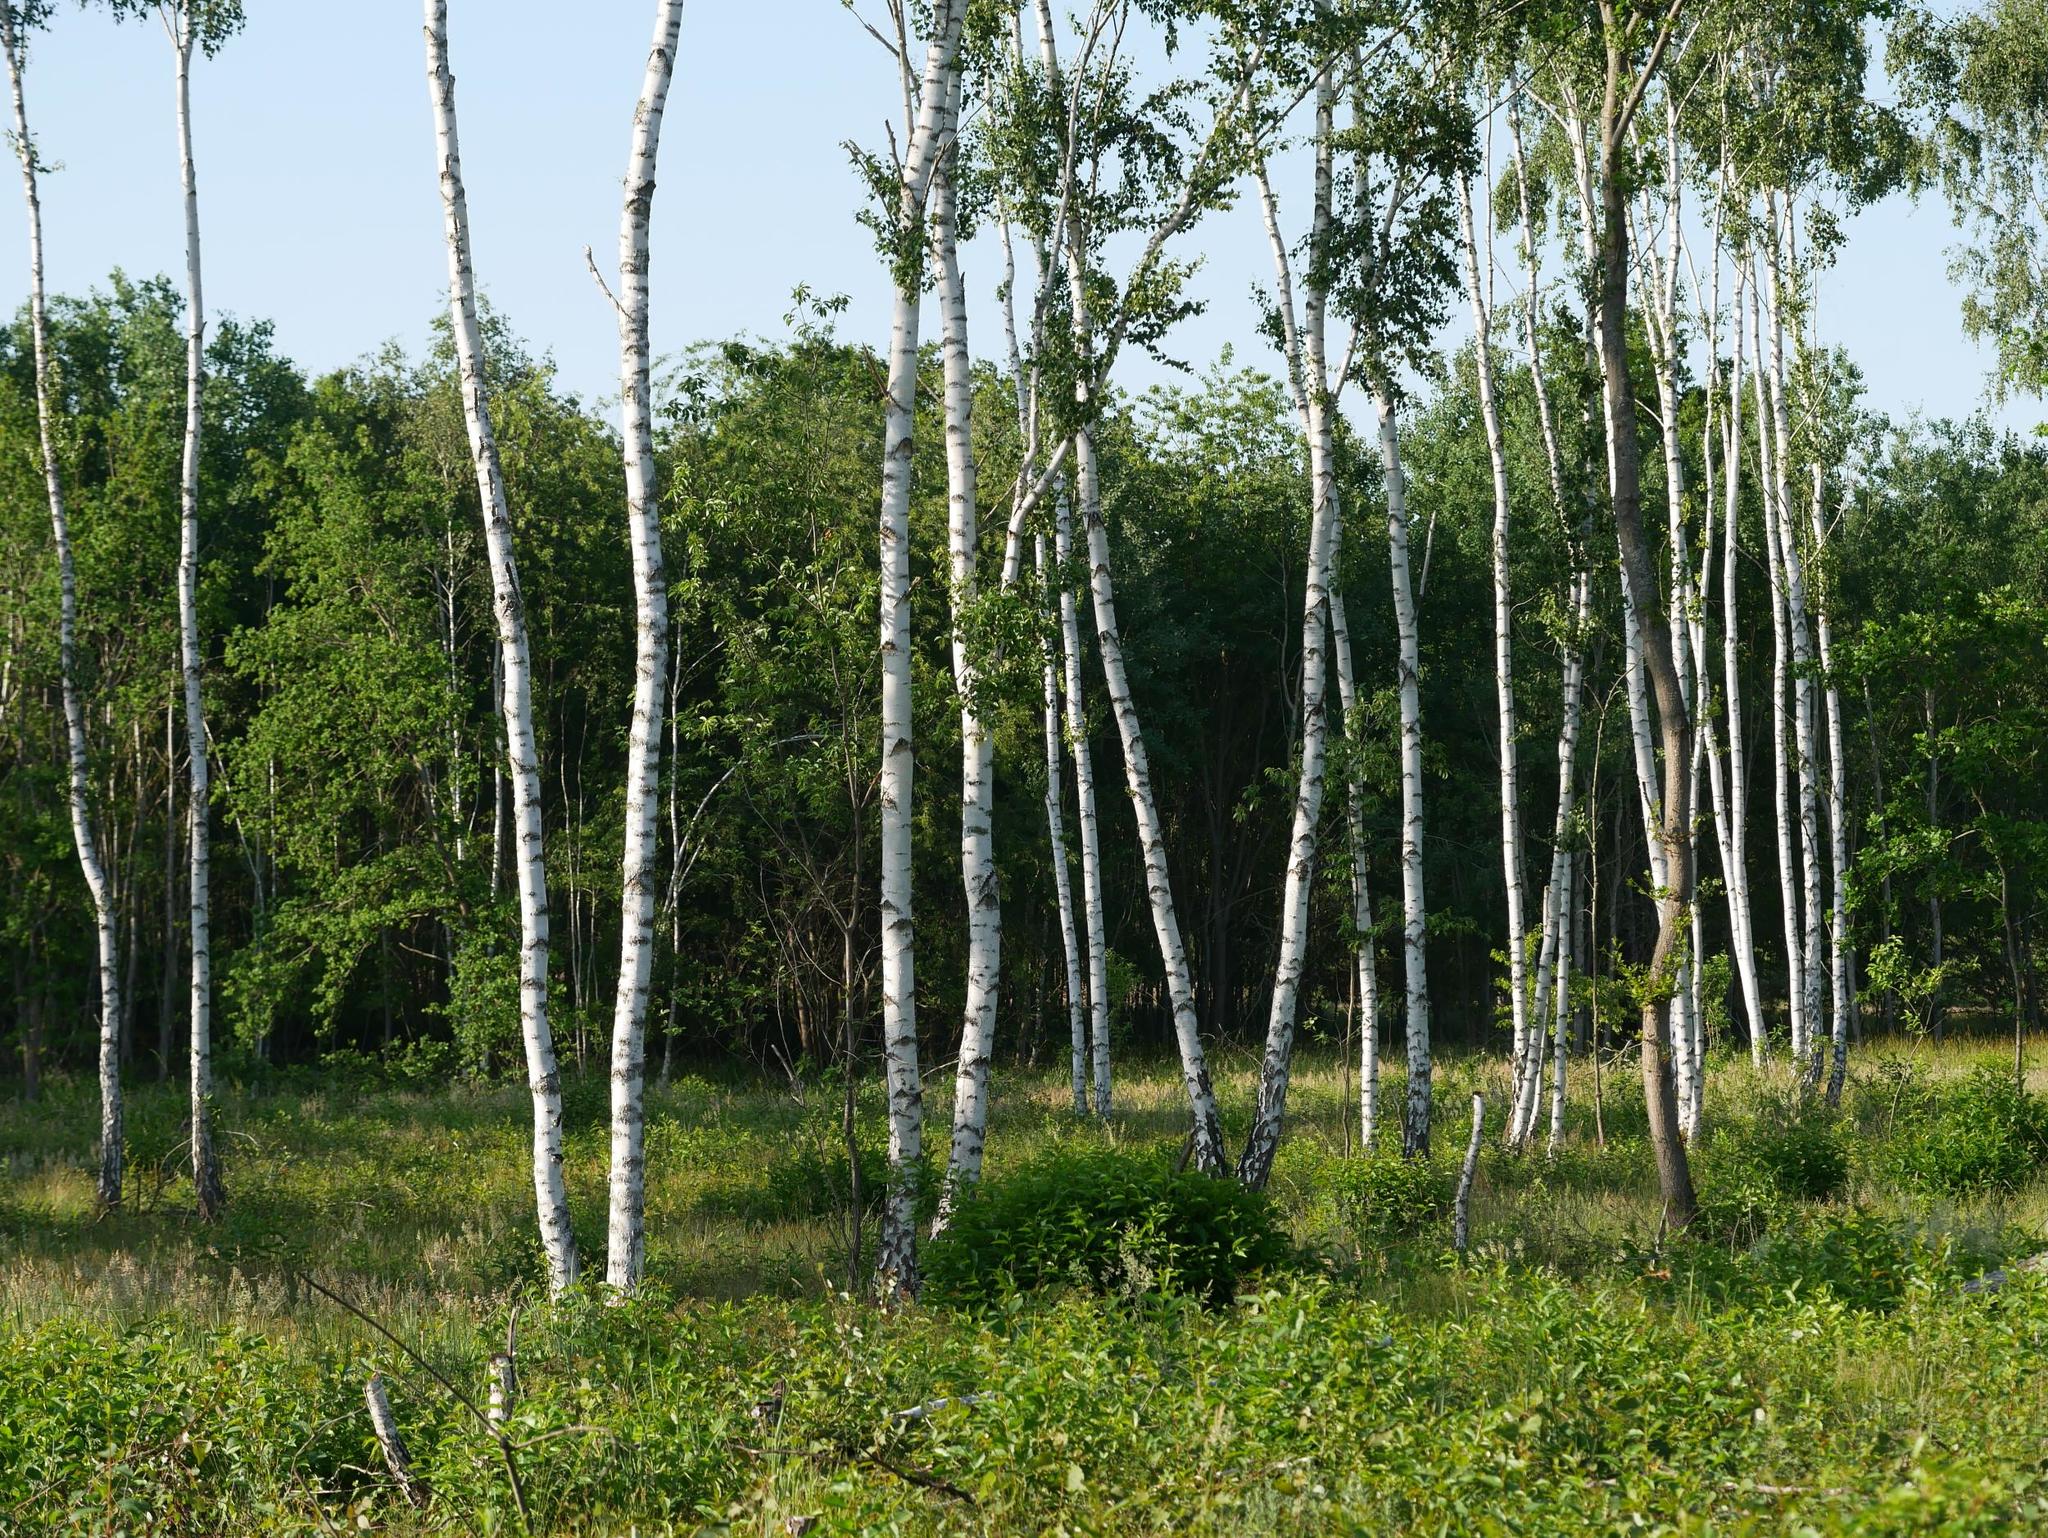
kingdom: Plantae
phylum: Tracheophyta
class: Magnoliopsida
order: Fagales
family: Betulaceae
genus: Betula
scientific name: Betula pendula
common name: Silver birch
